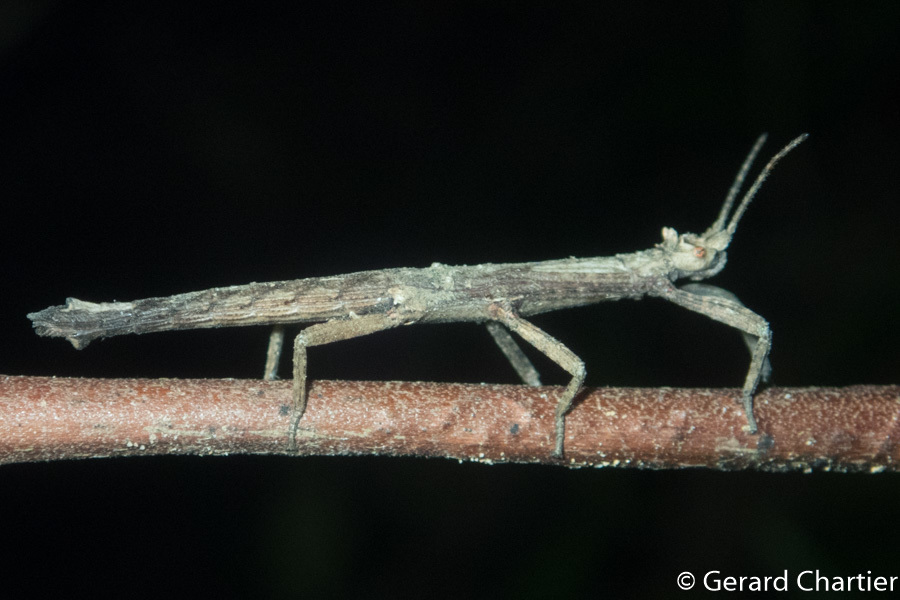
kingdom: Animalia
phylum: Arthropoda
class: Insecta
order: Phasmida
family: Heteropterygidae
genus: Orestes
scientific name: Orestes mouhotii
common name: Small cigar stick insect
